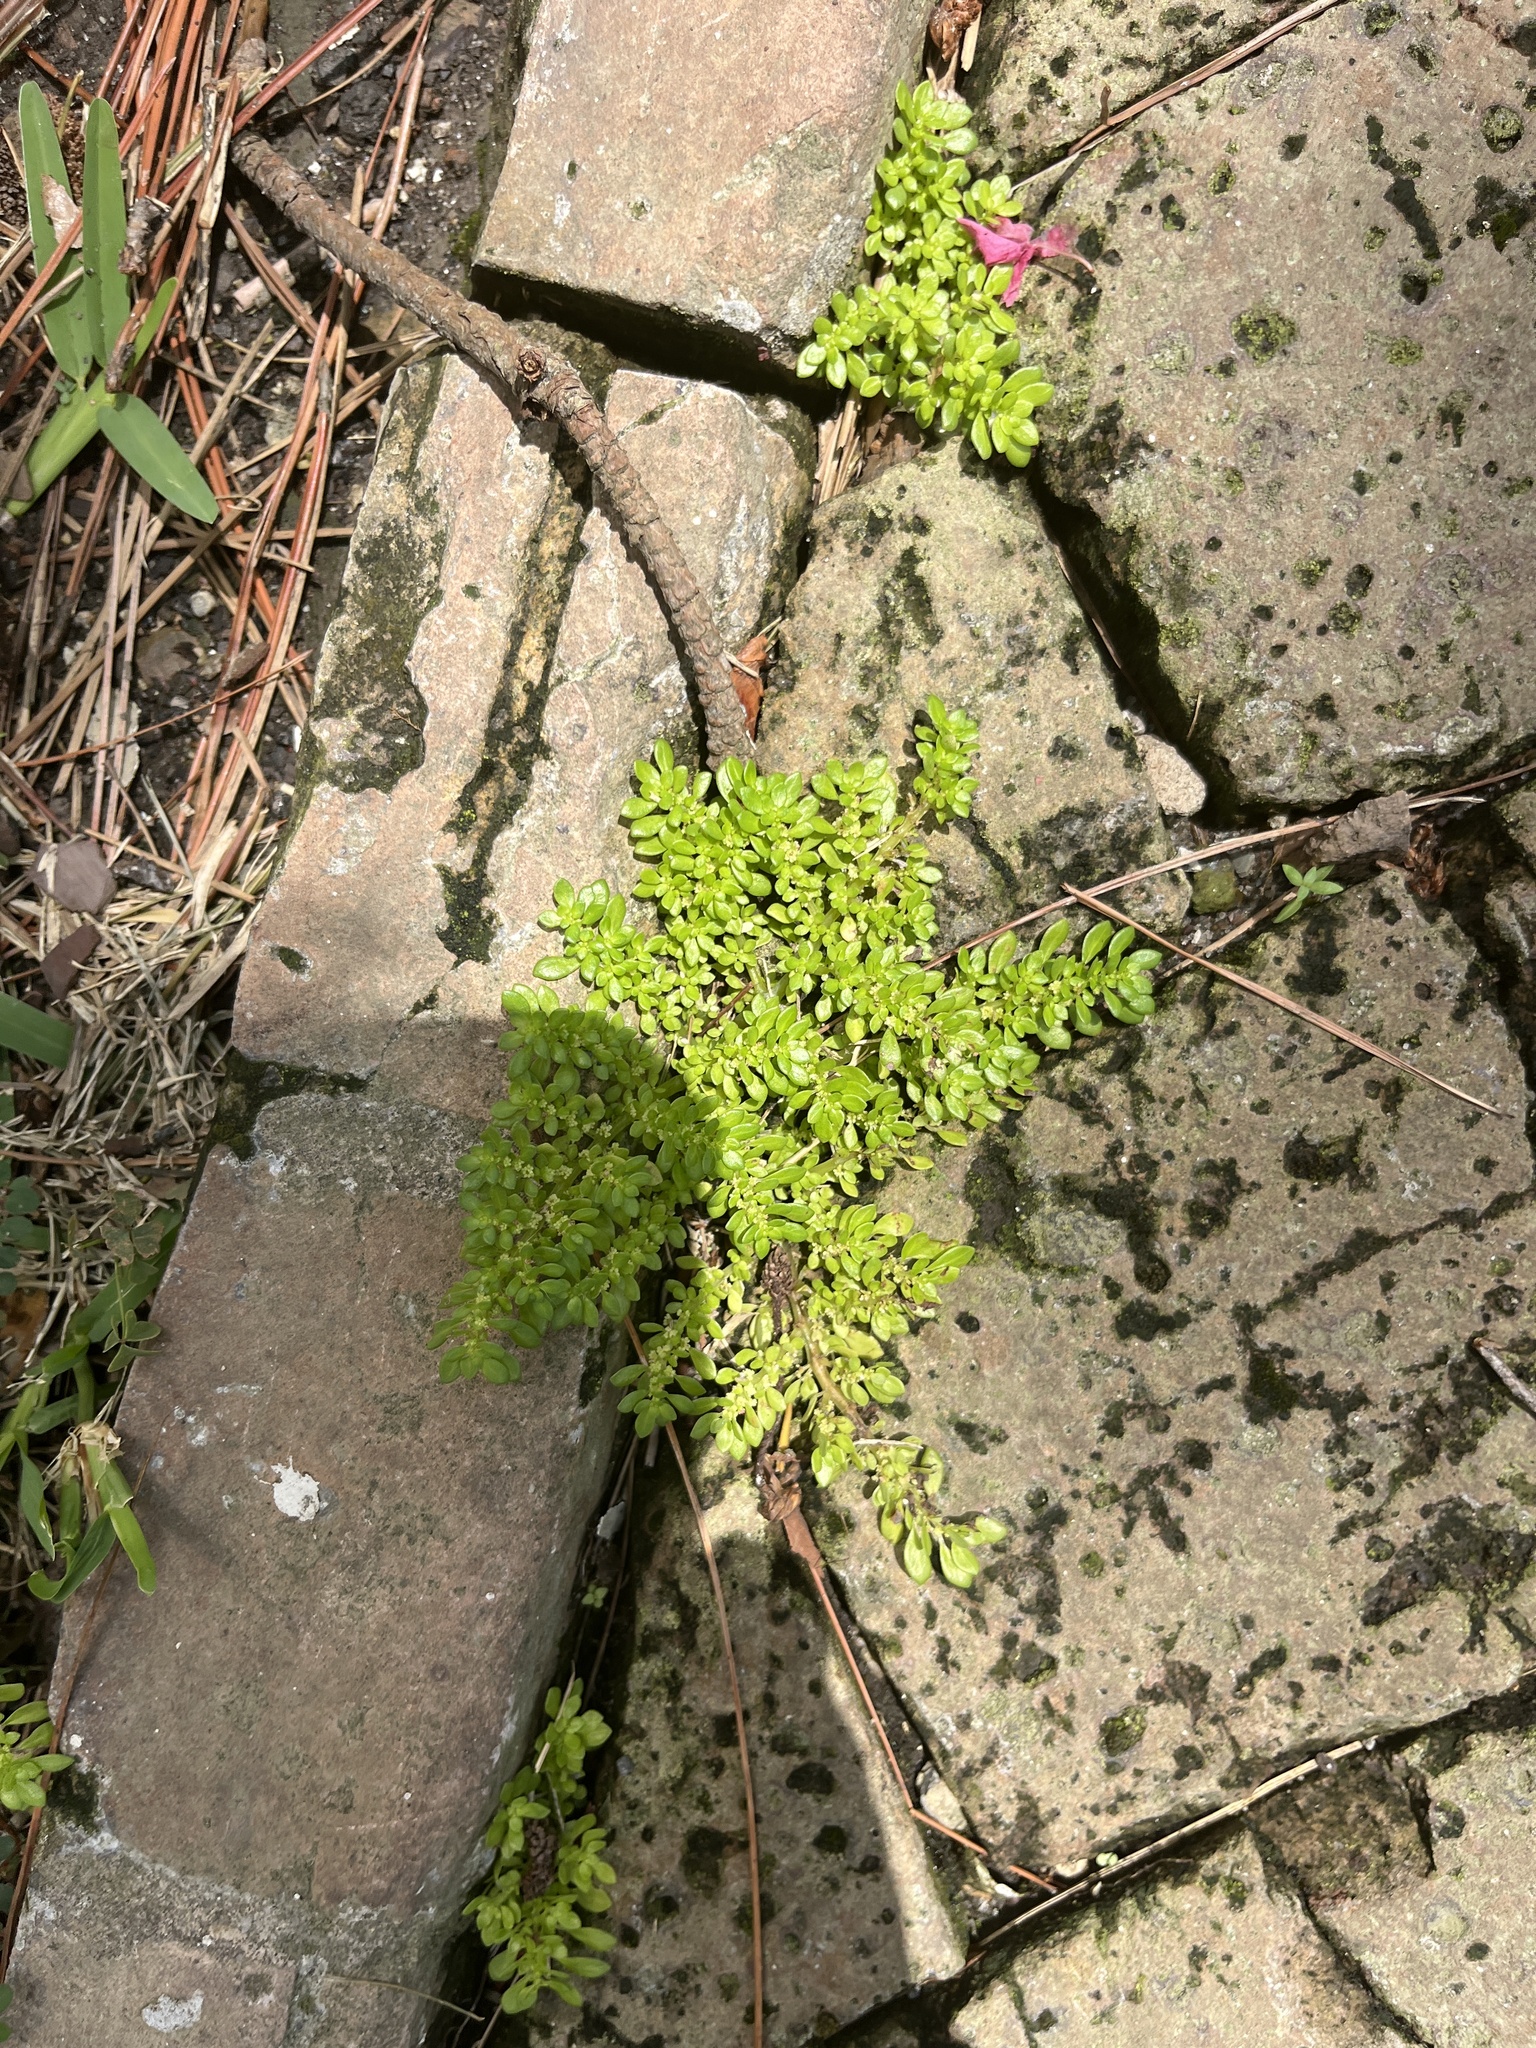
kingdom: Plantae
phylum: Tracheophyta
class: Magnoliopsida
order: Rosales
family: Urticaceae
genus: Pilea
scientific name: Pilea microphylla
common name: Artillery-plant
